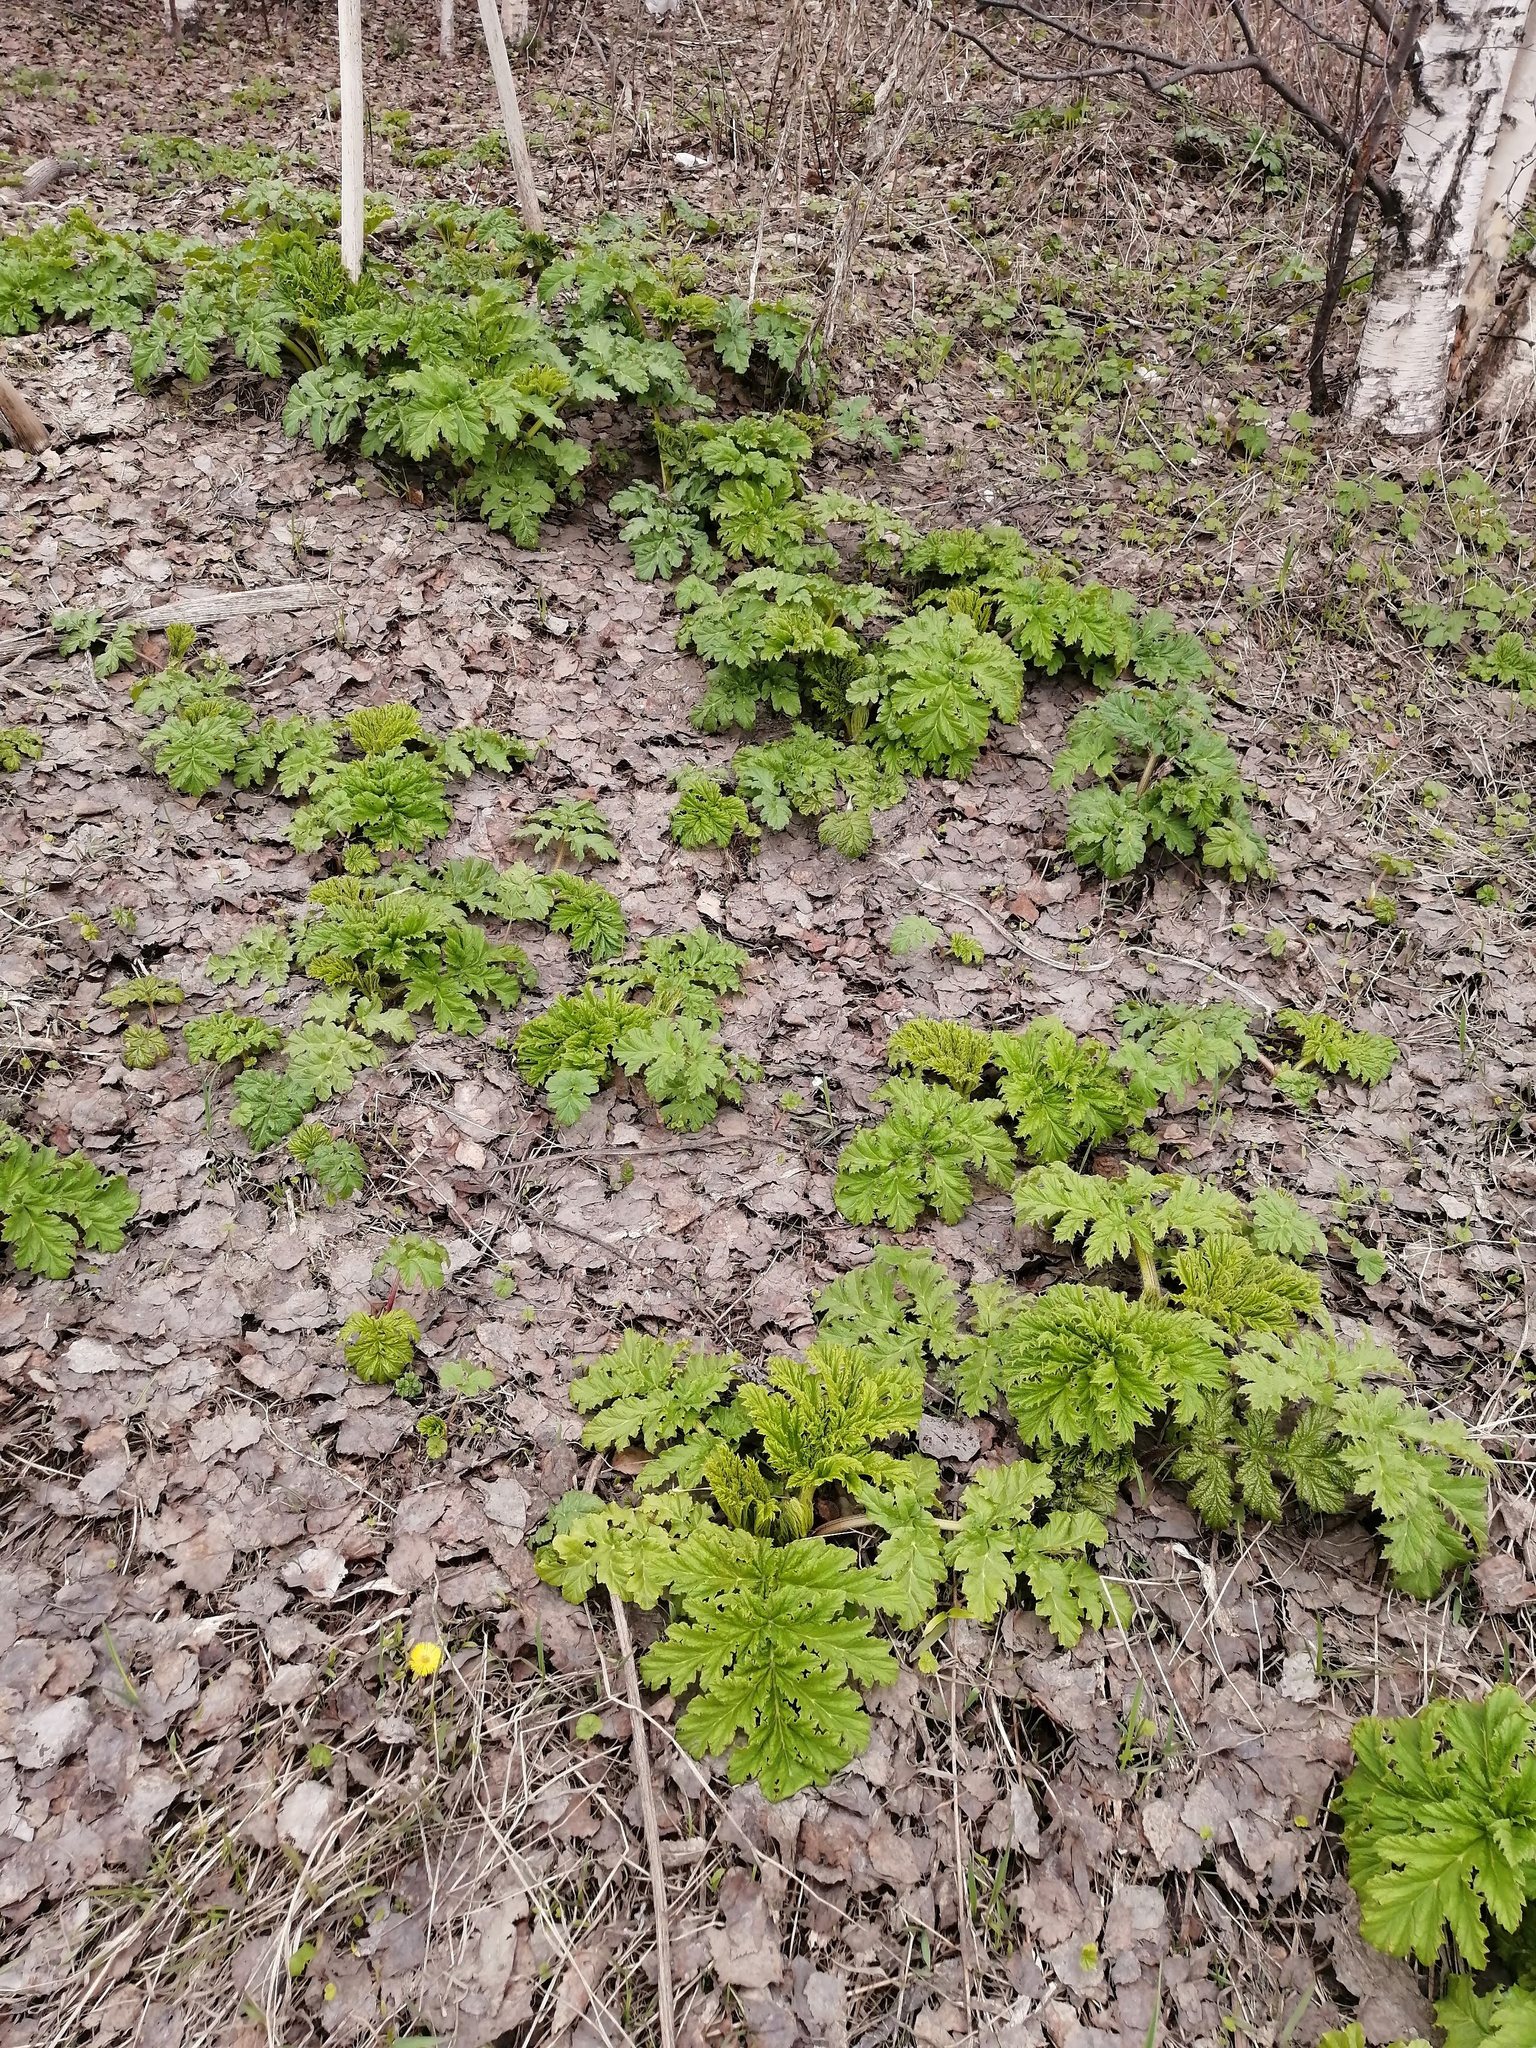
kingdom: Plantae
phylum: Tracheophyta
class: Magnoliopsida
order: Apiales
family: Apiaceae
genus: Heracleum
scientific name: Heracleum sosnowskyi
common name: Sosnowsky's hogweed
